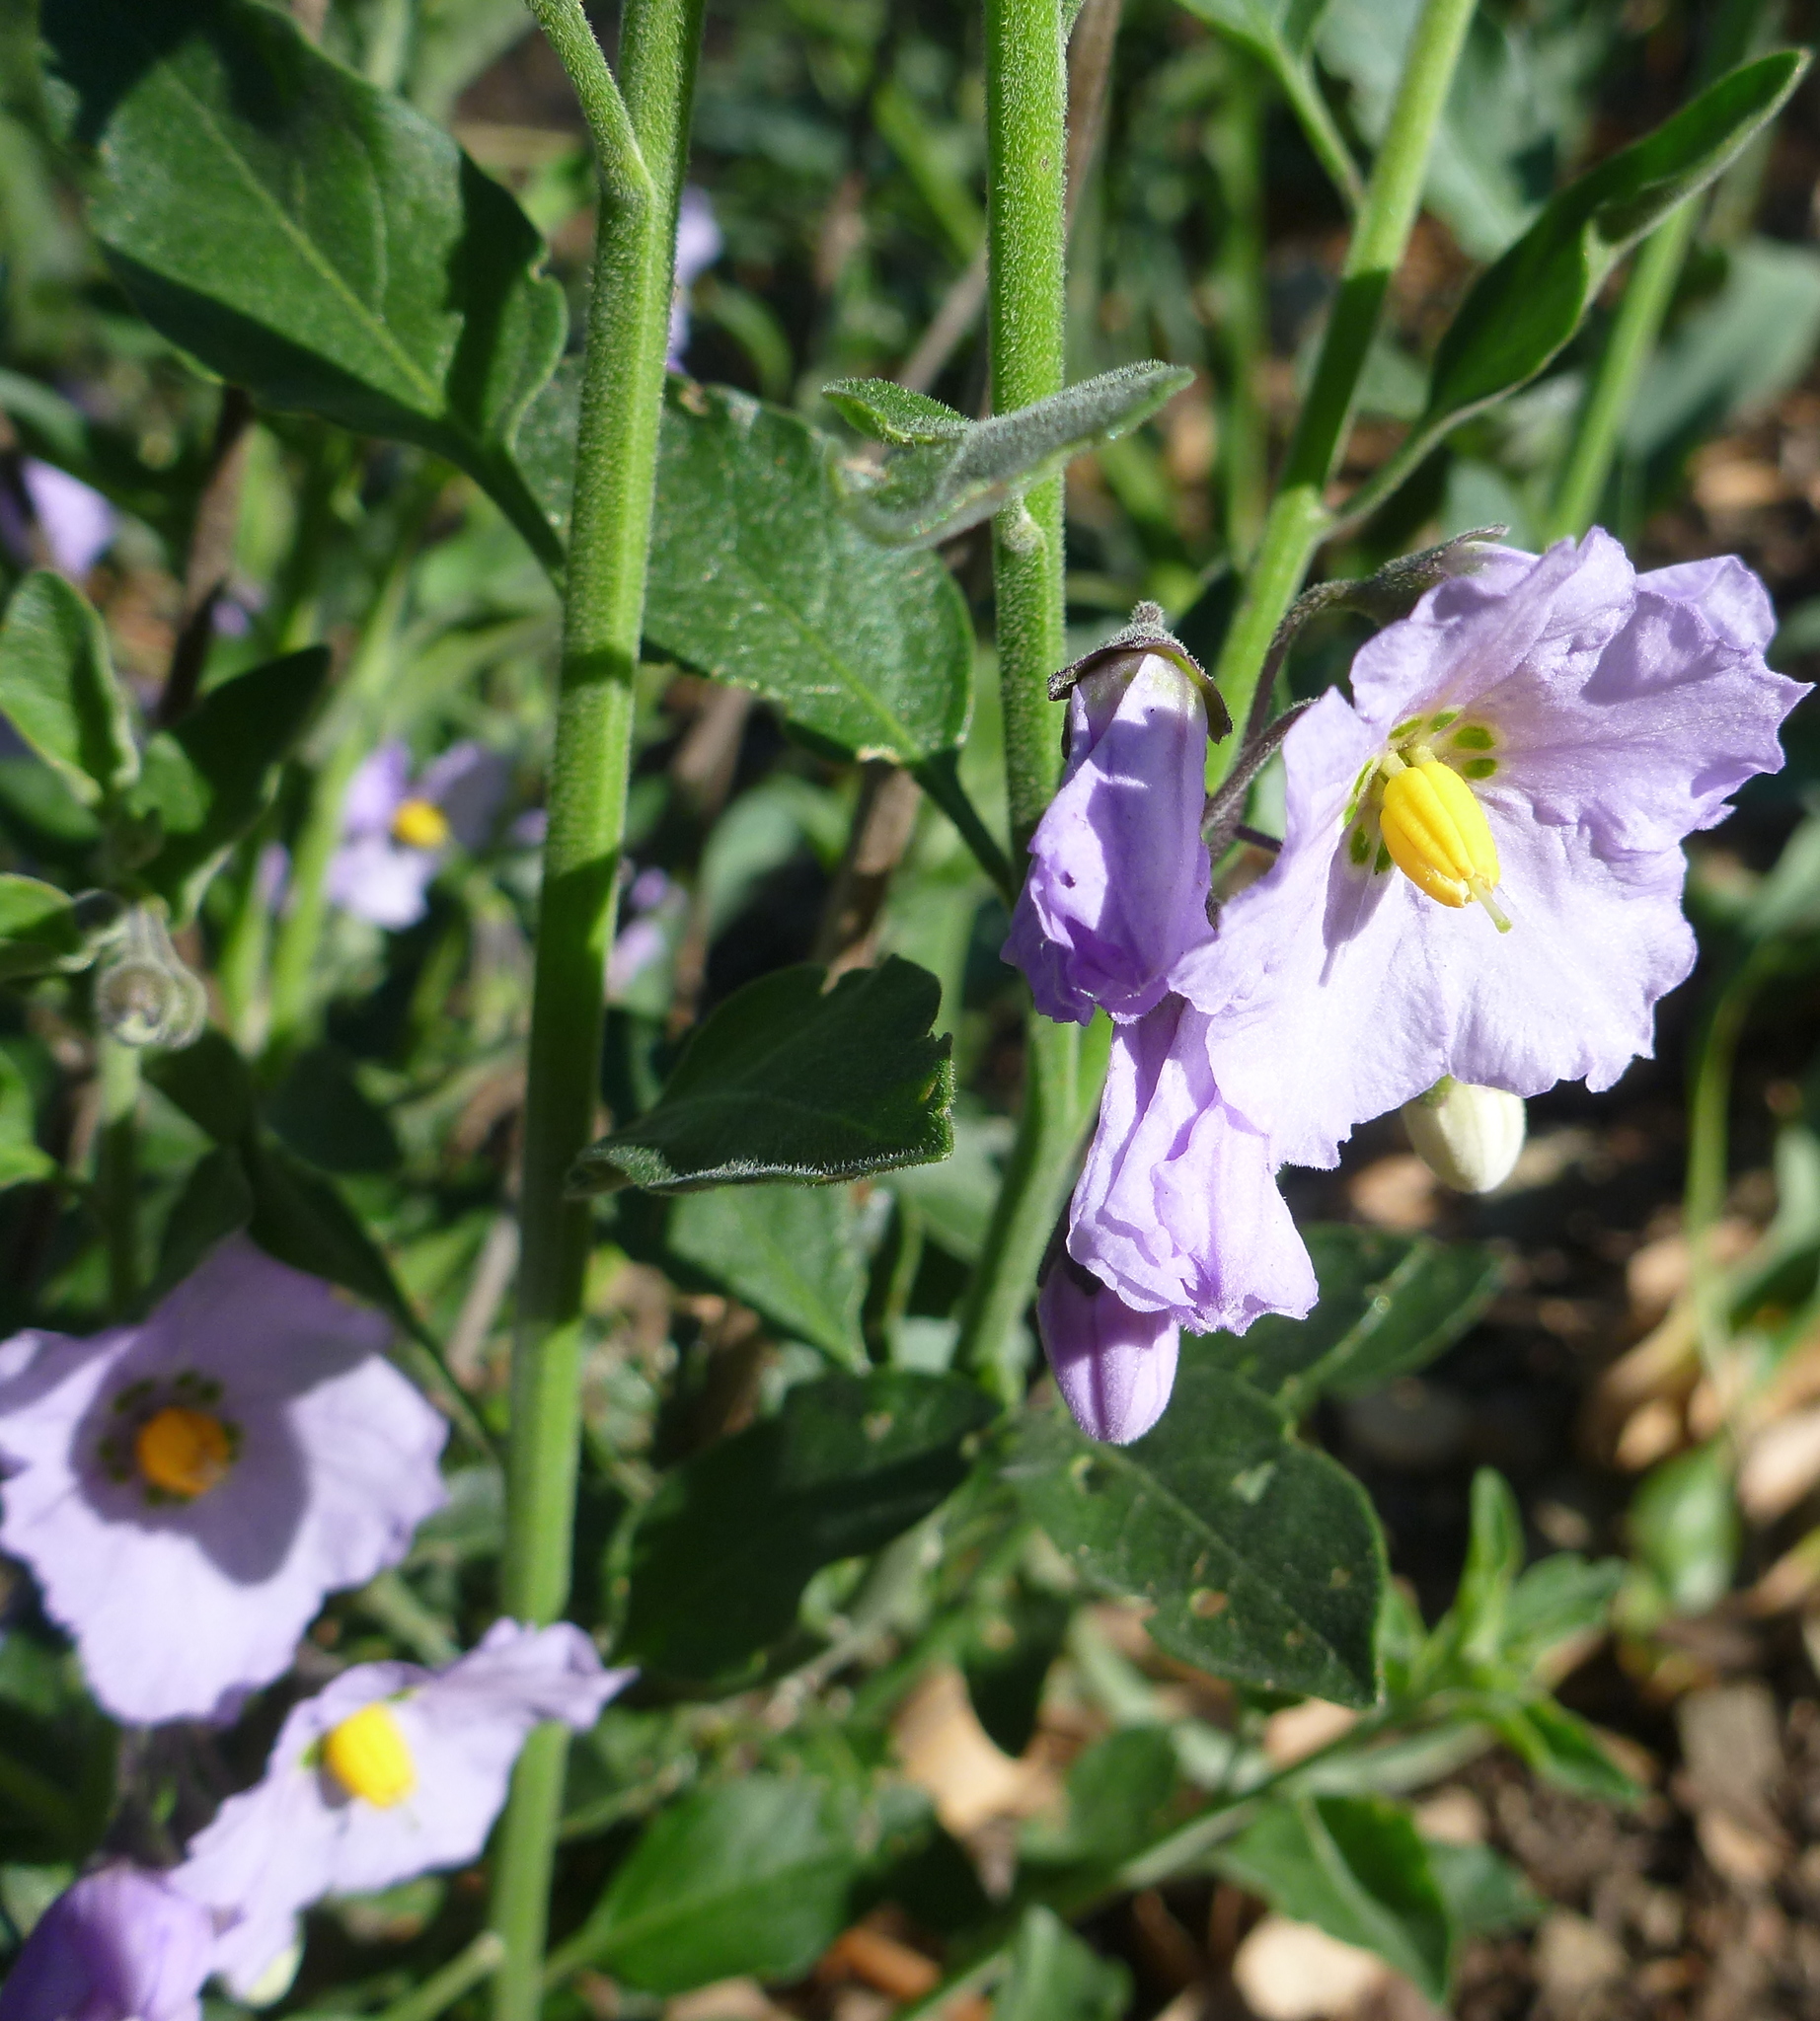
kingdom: Plantae
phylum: Tracheophyta
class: Magnoliopsida
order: Solanales
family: Solanaceae
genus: Solanum
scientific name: Solanum umbelliferum
